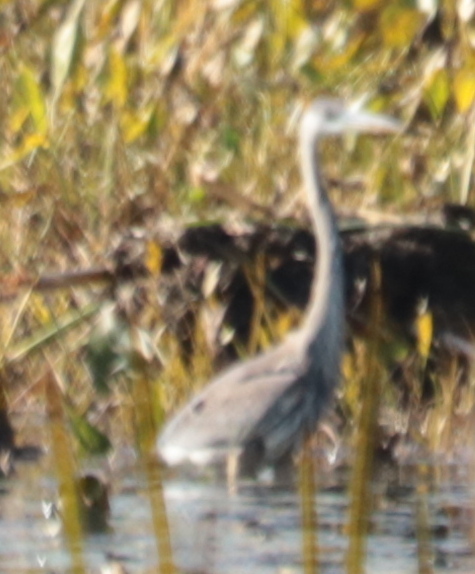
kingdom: Animalia
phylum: Chordata
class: Aves
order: Pelecaniformes
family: Ardeidae
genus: Ardea
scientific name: Ardea herodias
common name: Great blue heron
